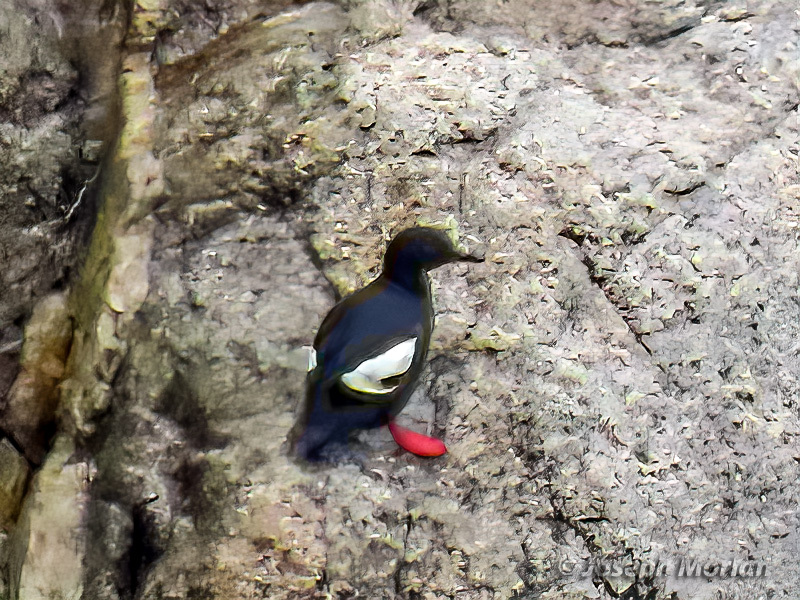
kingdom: Animalia
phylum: Chordata
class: Aves
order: Charadriiformes
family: Alcidae
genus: Cepphus
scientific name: Cepphus columba
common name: Pigeon guillemot
